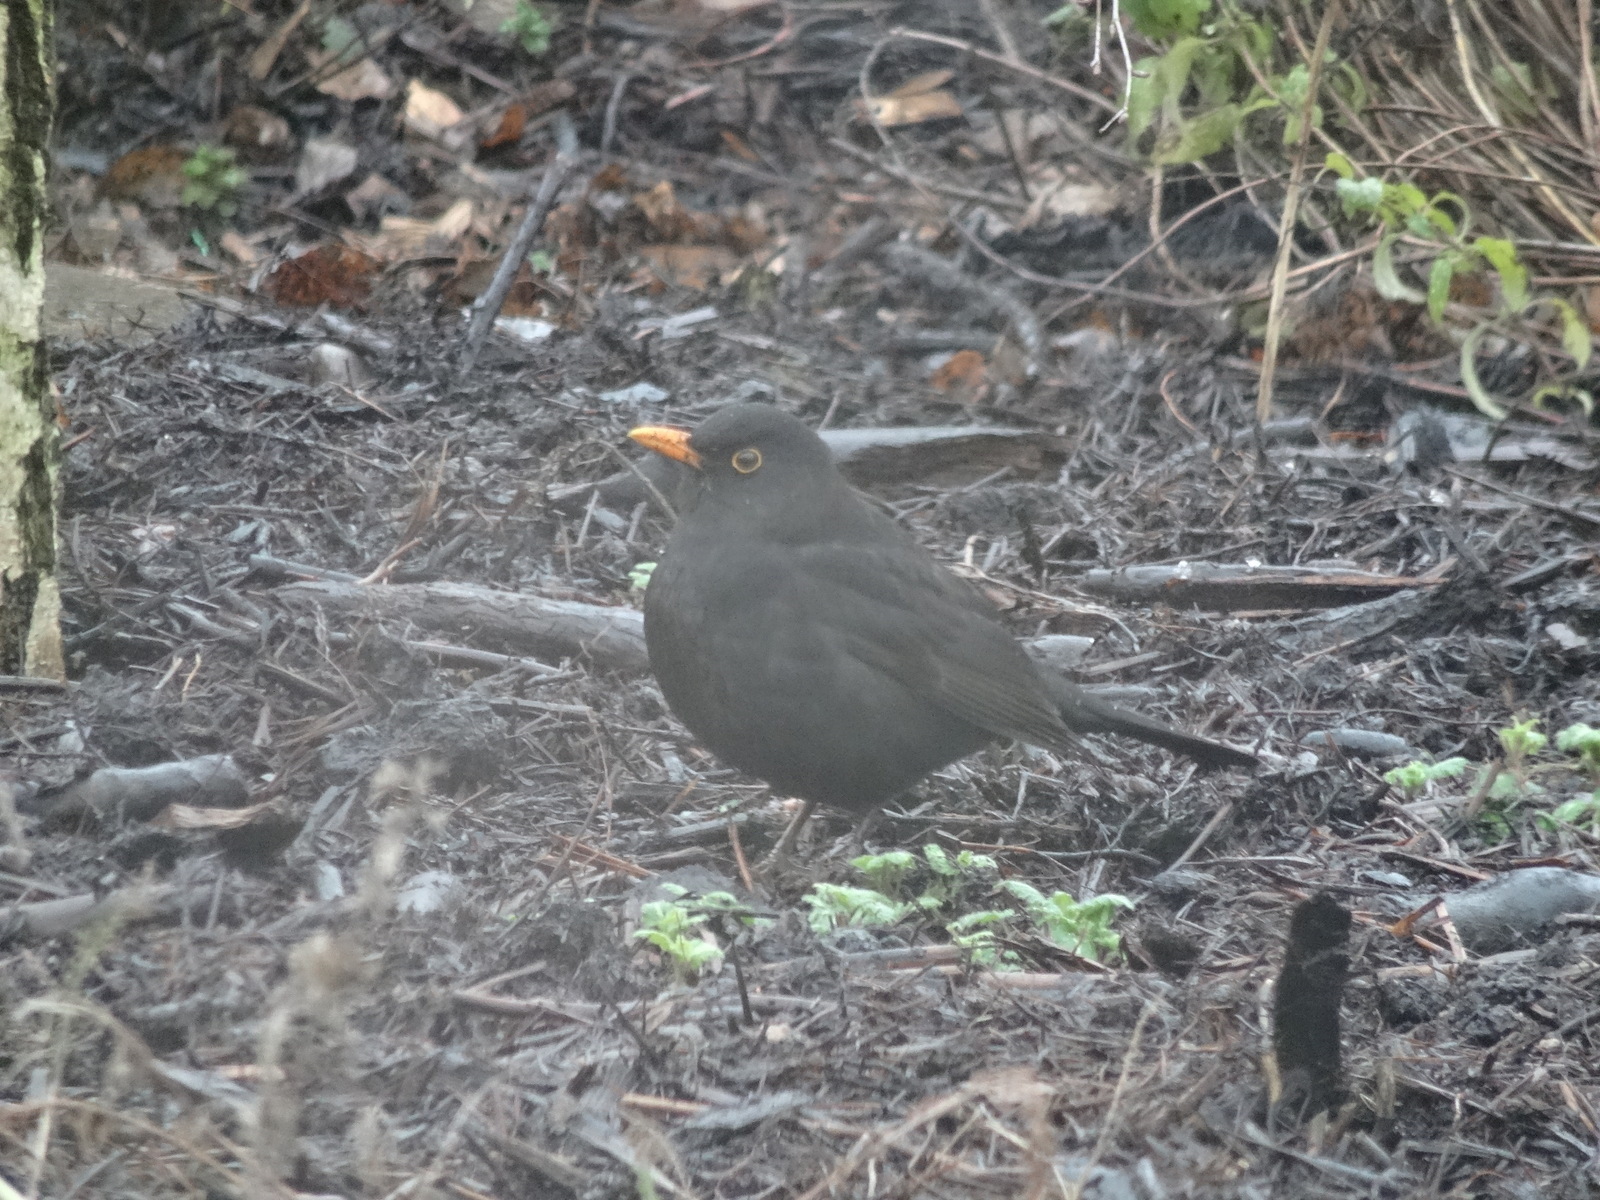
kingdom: Animalia
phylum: Chordata
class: Aves
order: Passeriformes
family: Turdidae
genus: Turdus
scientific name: Turdus merula
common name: Common blackbird
